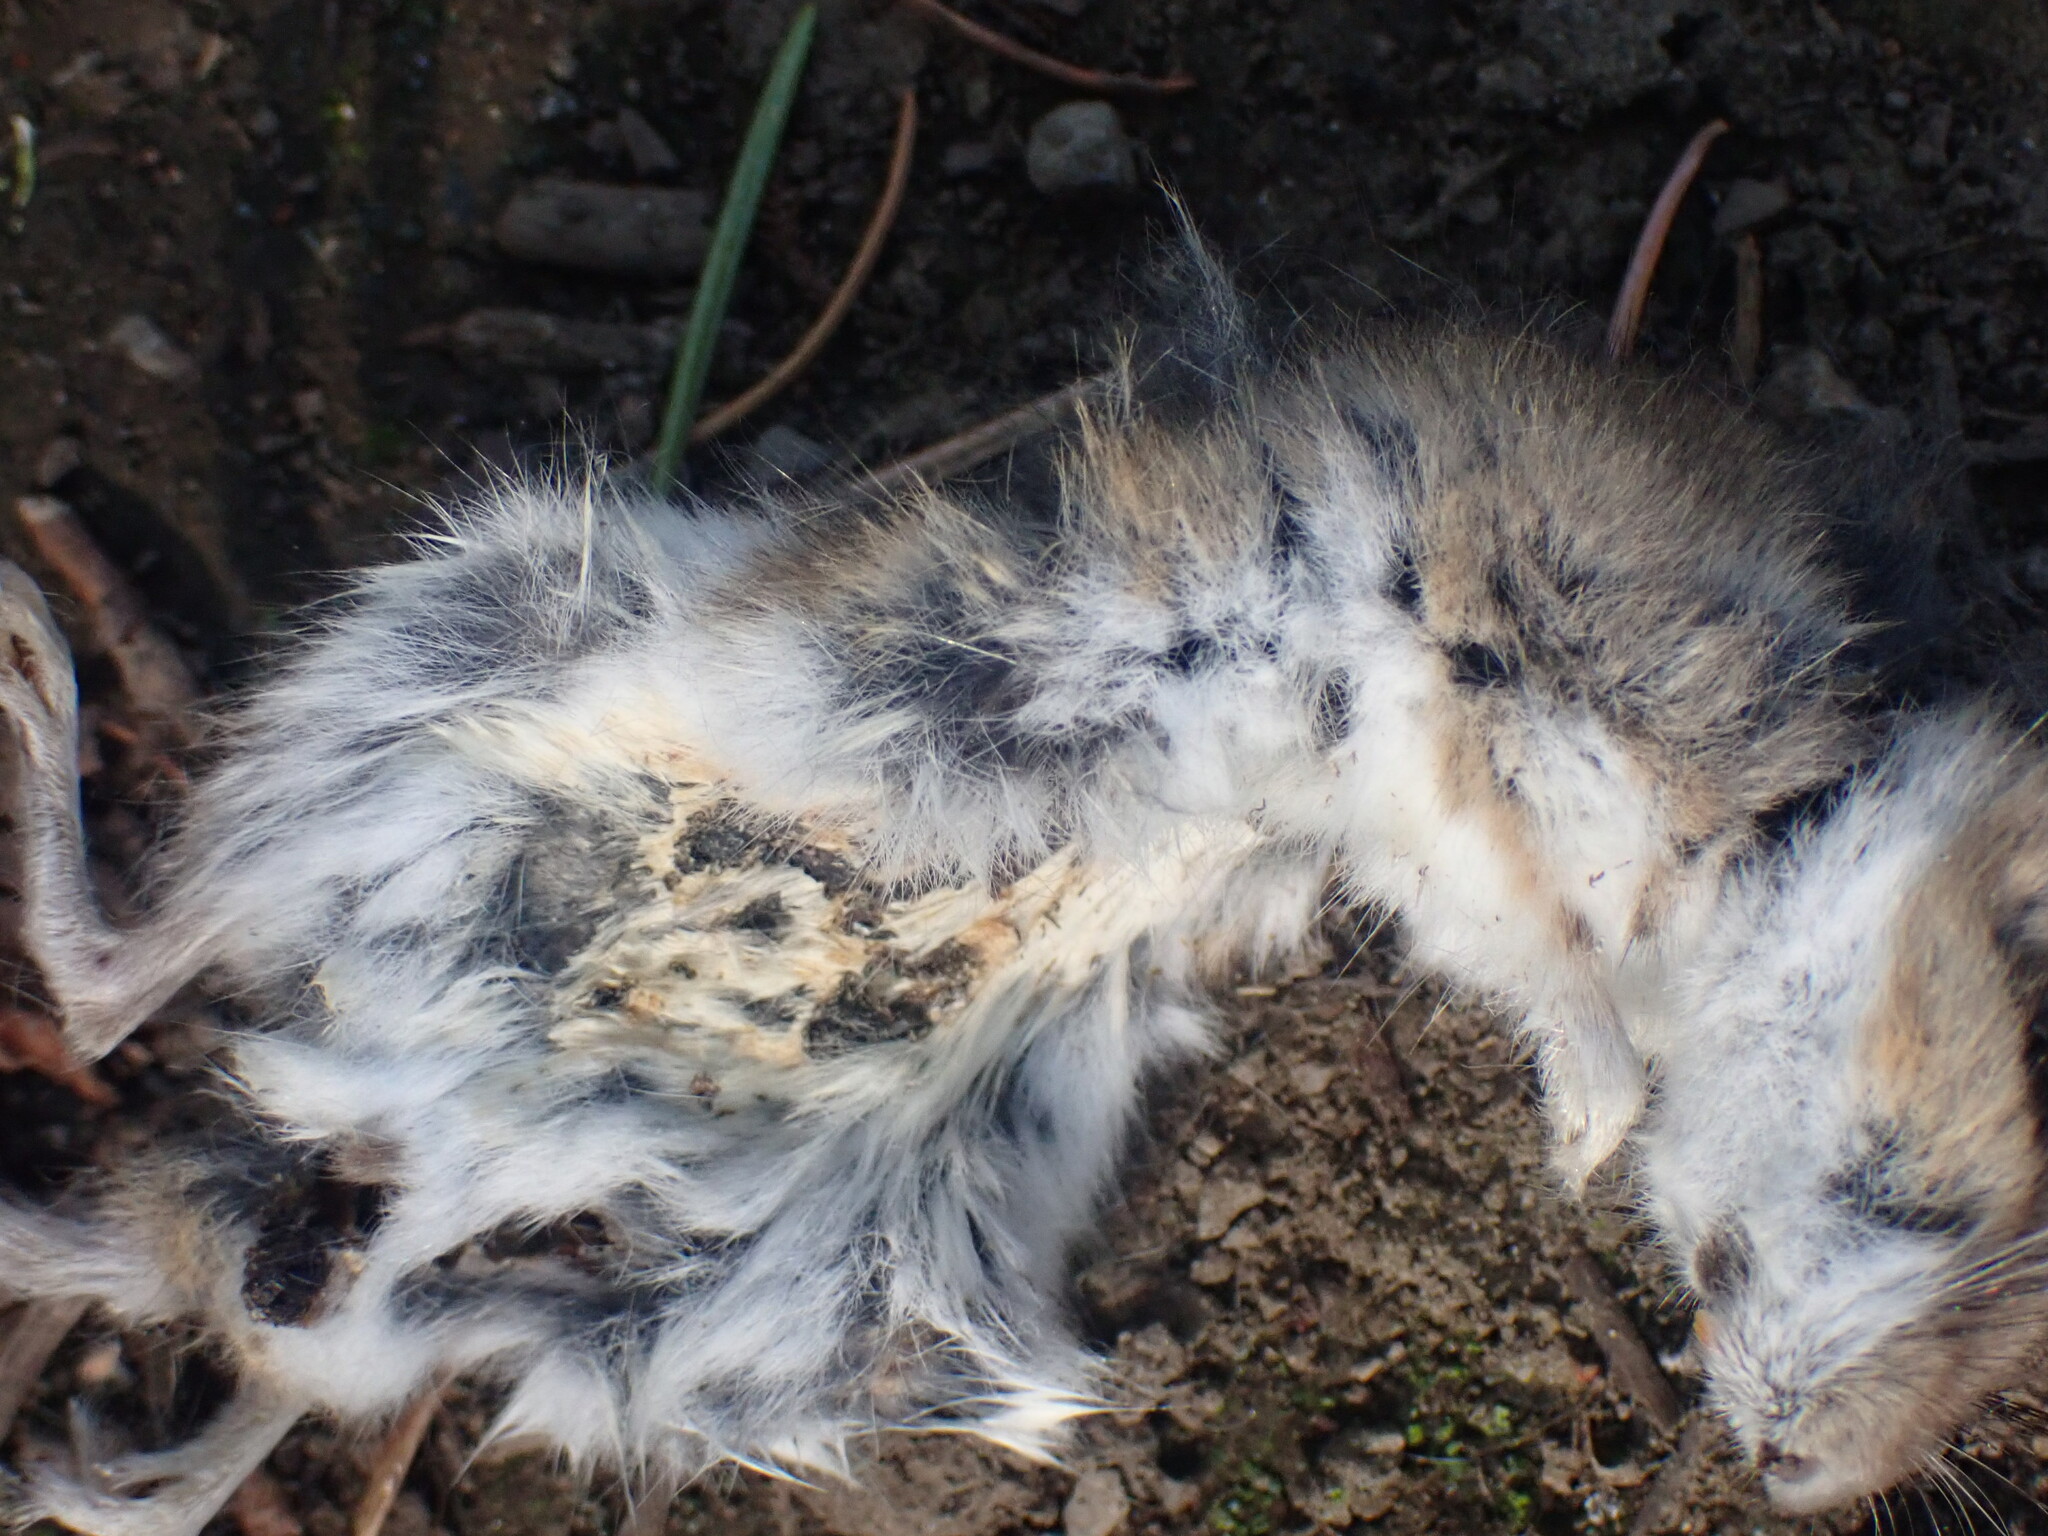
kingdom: Animalia
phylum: Chordata
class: Mammalia
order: Rodentia
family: Cricetidae
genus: Peromyscus
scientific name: Peromyscus maniculatus
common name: Deer mouse
